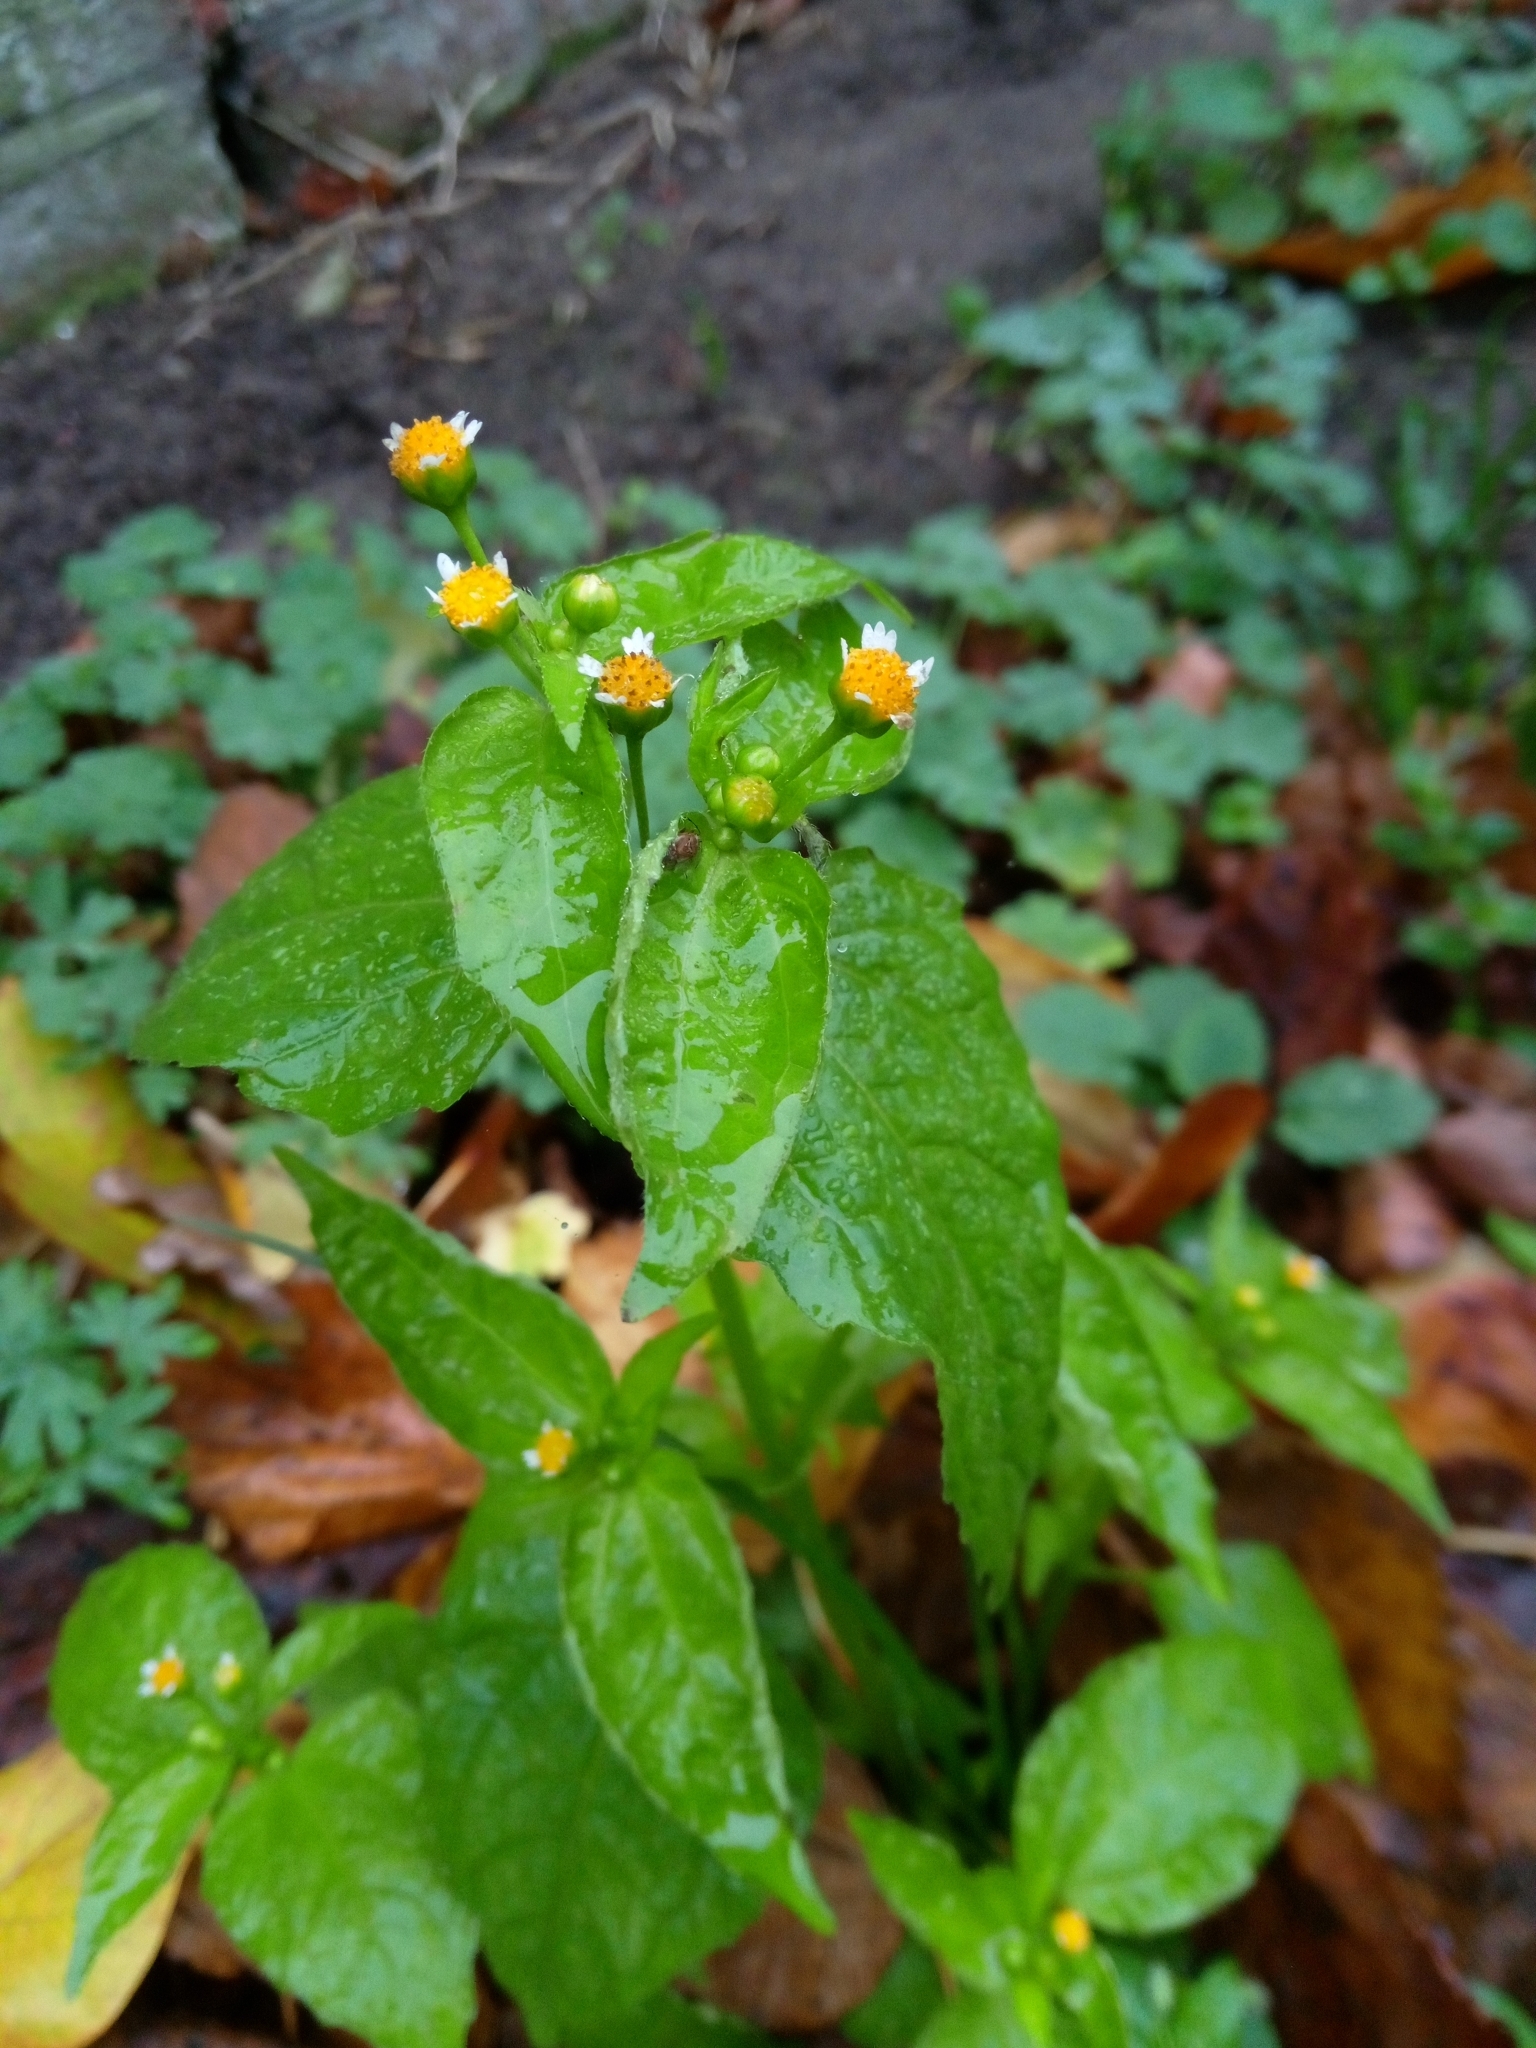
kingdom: Plantae
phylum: Tracheophyta
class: Magnoliopsida
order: Asterales
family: Asteraceae
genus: Galinsoga
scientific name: Galinsoga parviflora
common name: Gallant soldier
